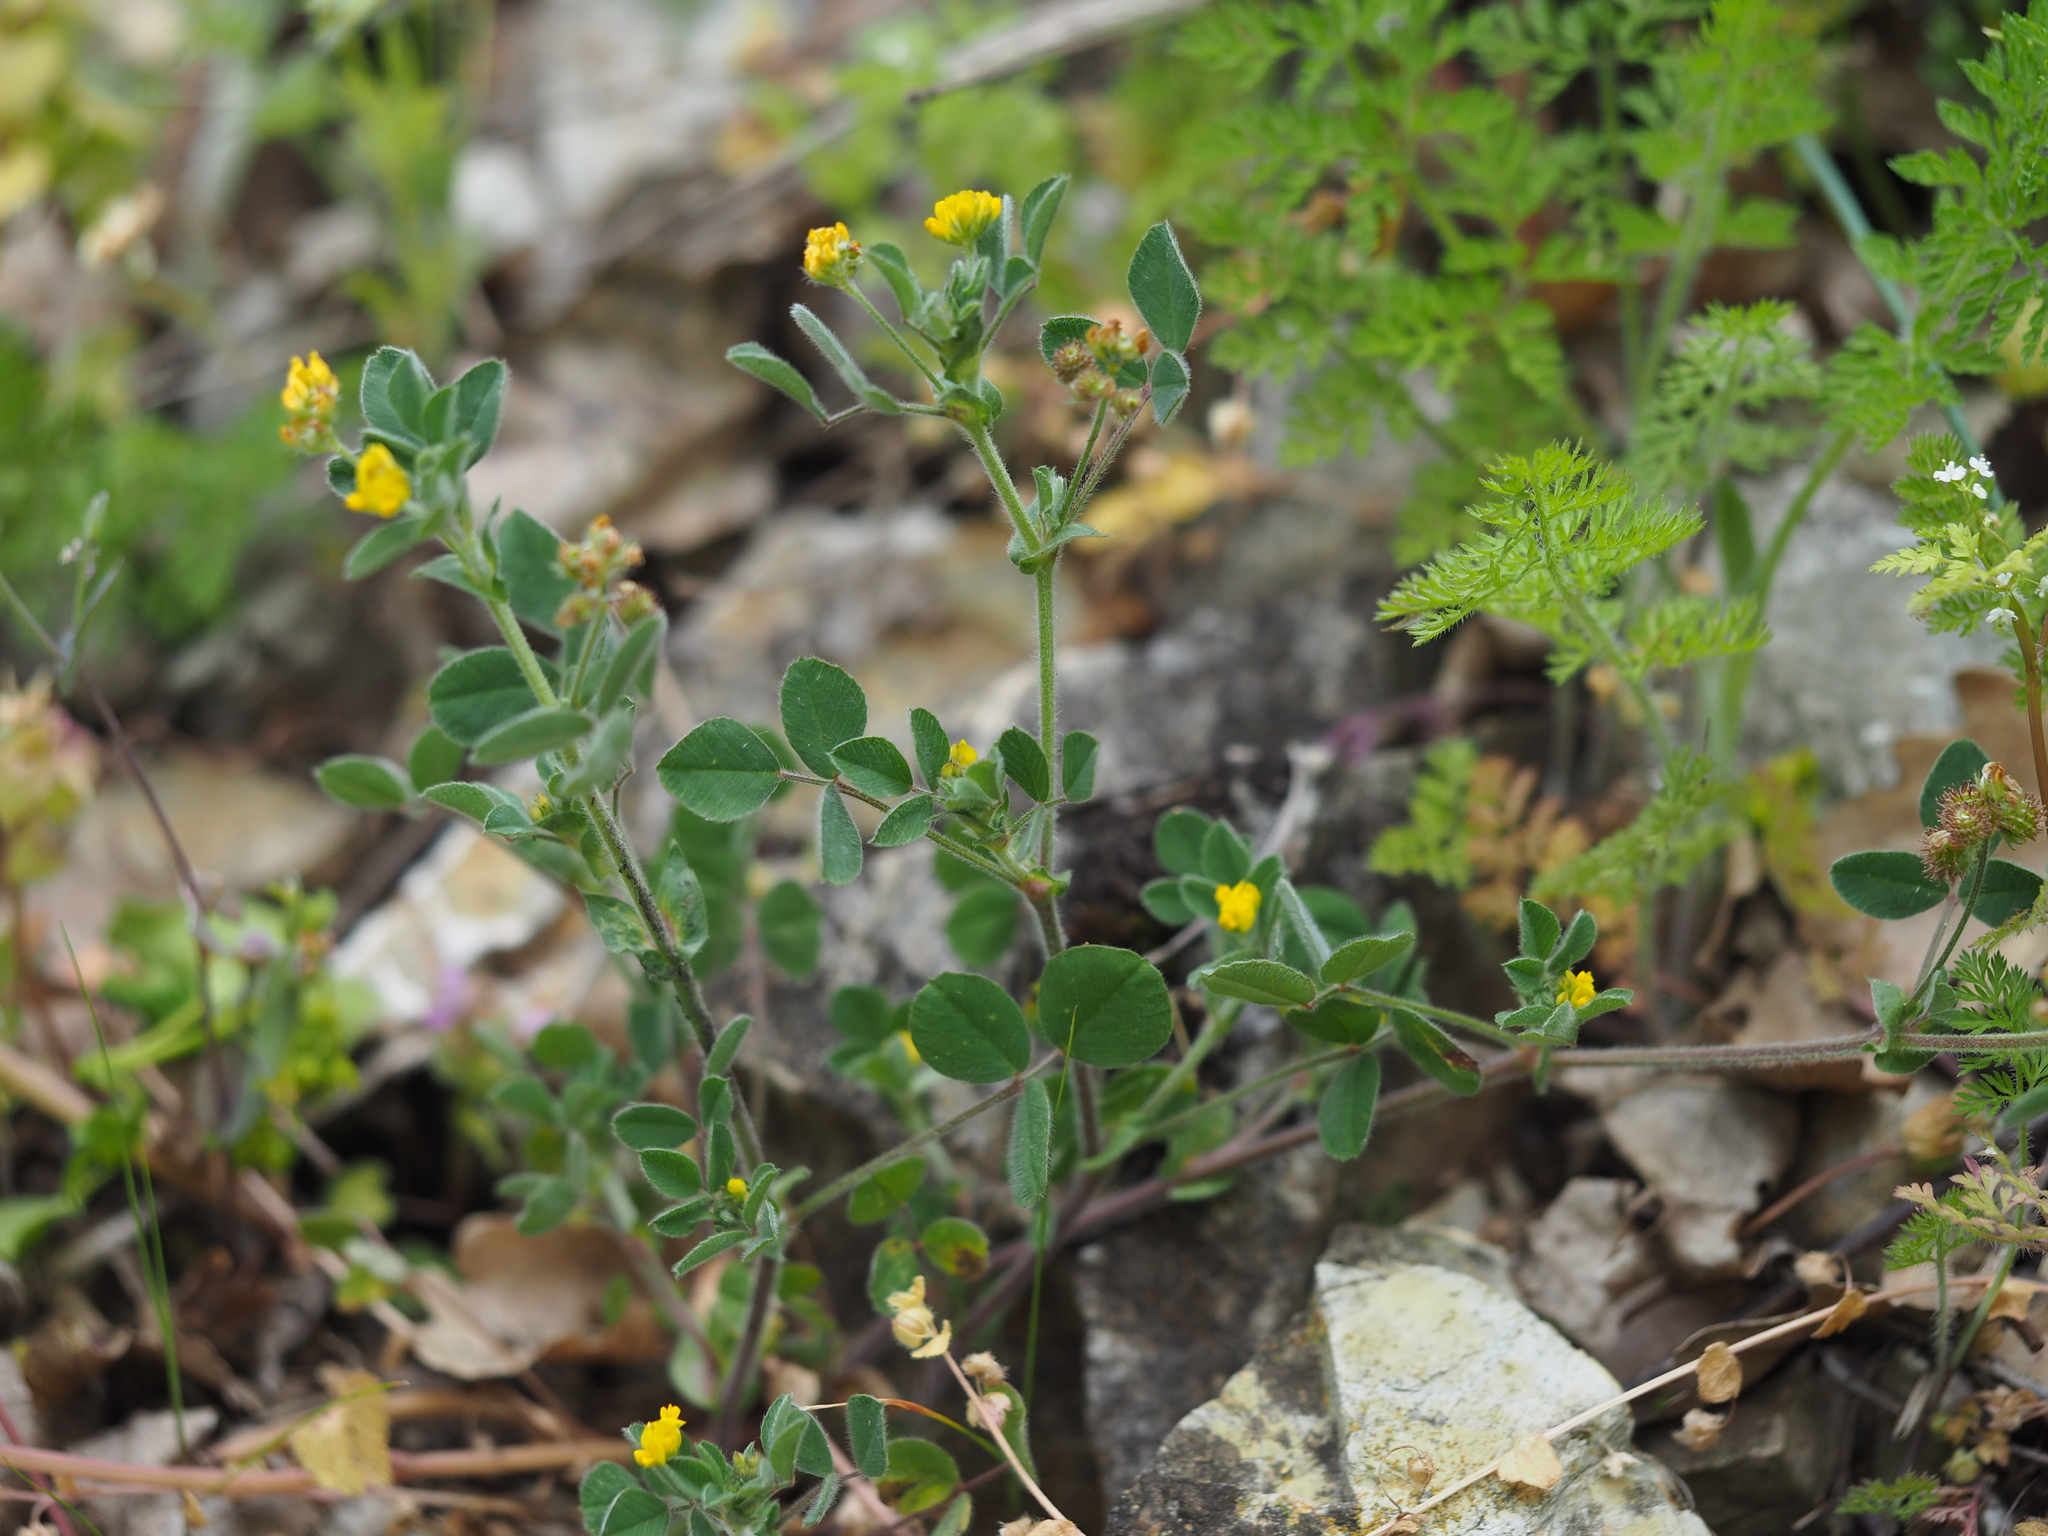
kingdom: Plantae
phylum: Tracheophyta
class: Magnoliopsida
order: Fabales
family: Fabaceae
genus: Medicago
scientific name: Medicago minima
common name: Little bur-clover
